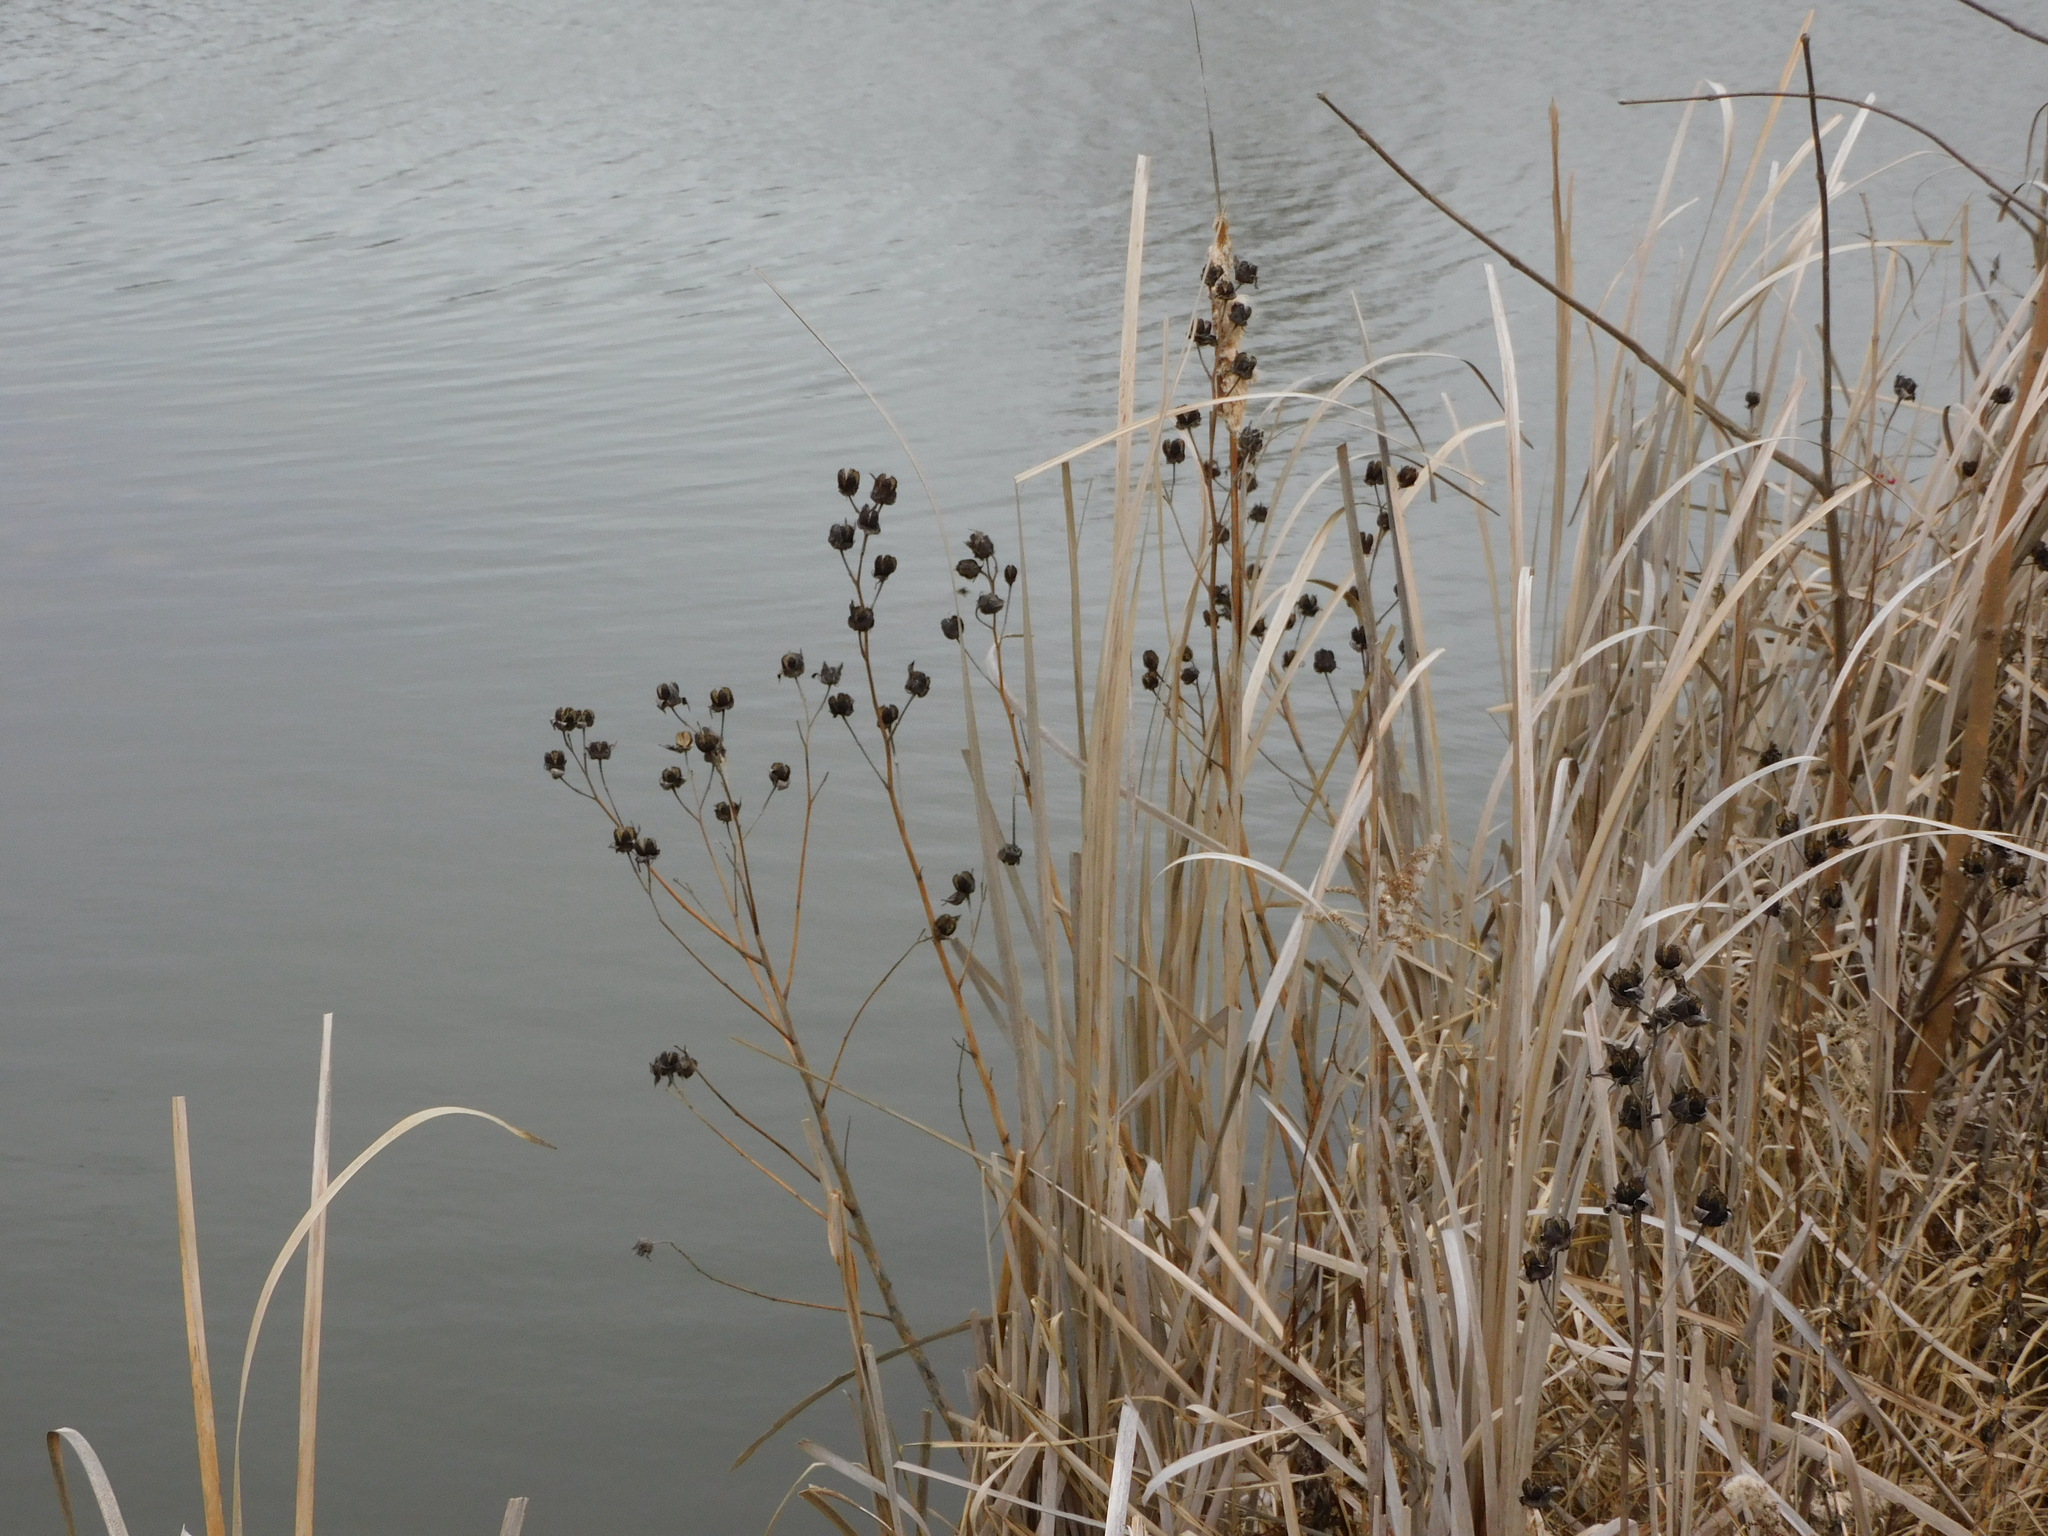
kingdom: Plantae
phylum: Tracheophyta
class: Magnoliopsida
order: Malvales
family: Malvaceae
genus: Hibiscus
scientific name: Hibiscus moscheutos
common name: Common rose-mallow
